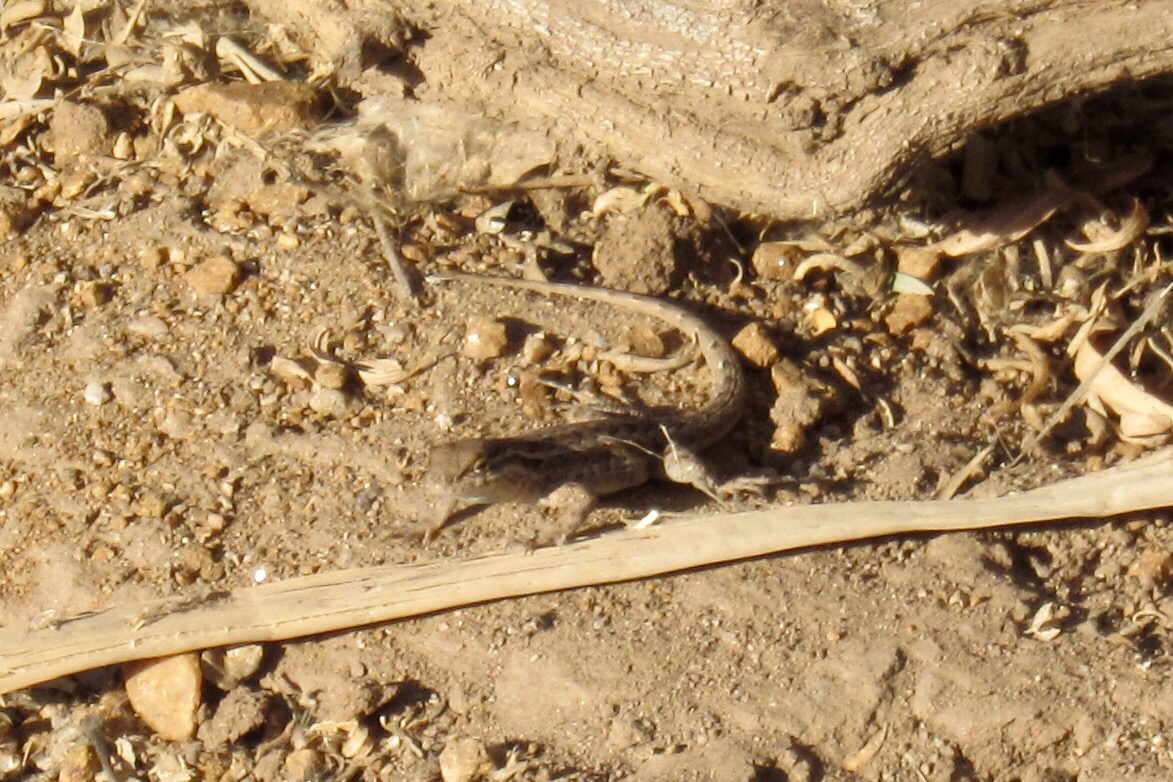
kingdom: Animalia
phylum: Chordata
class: Squamata
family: Phrynosomatidae
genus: Uta
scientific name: Uta stansburiana
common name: Side-blotched lizard
